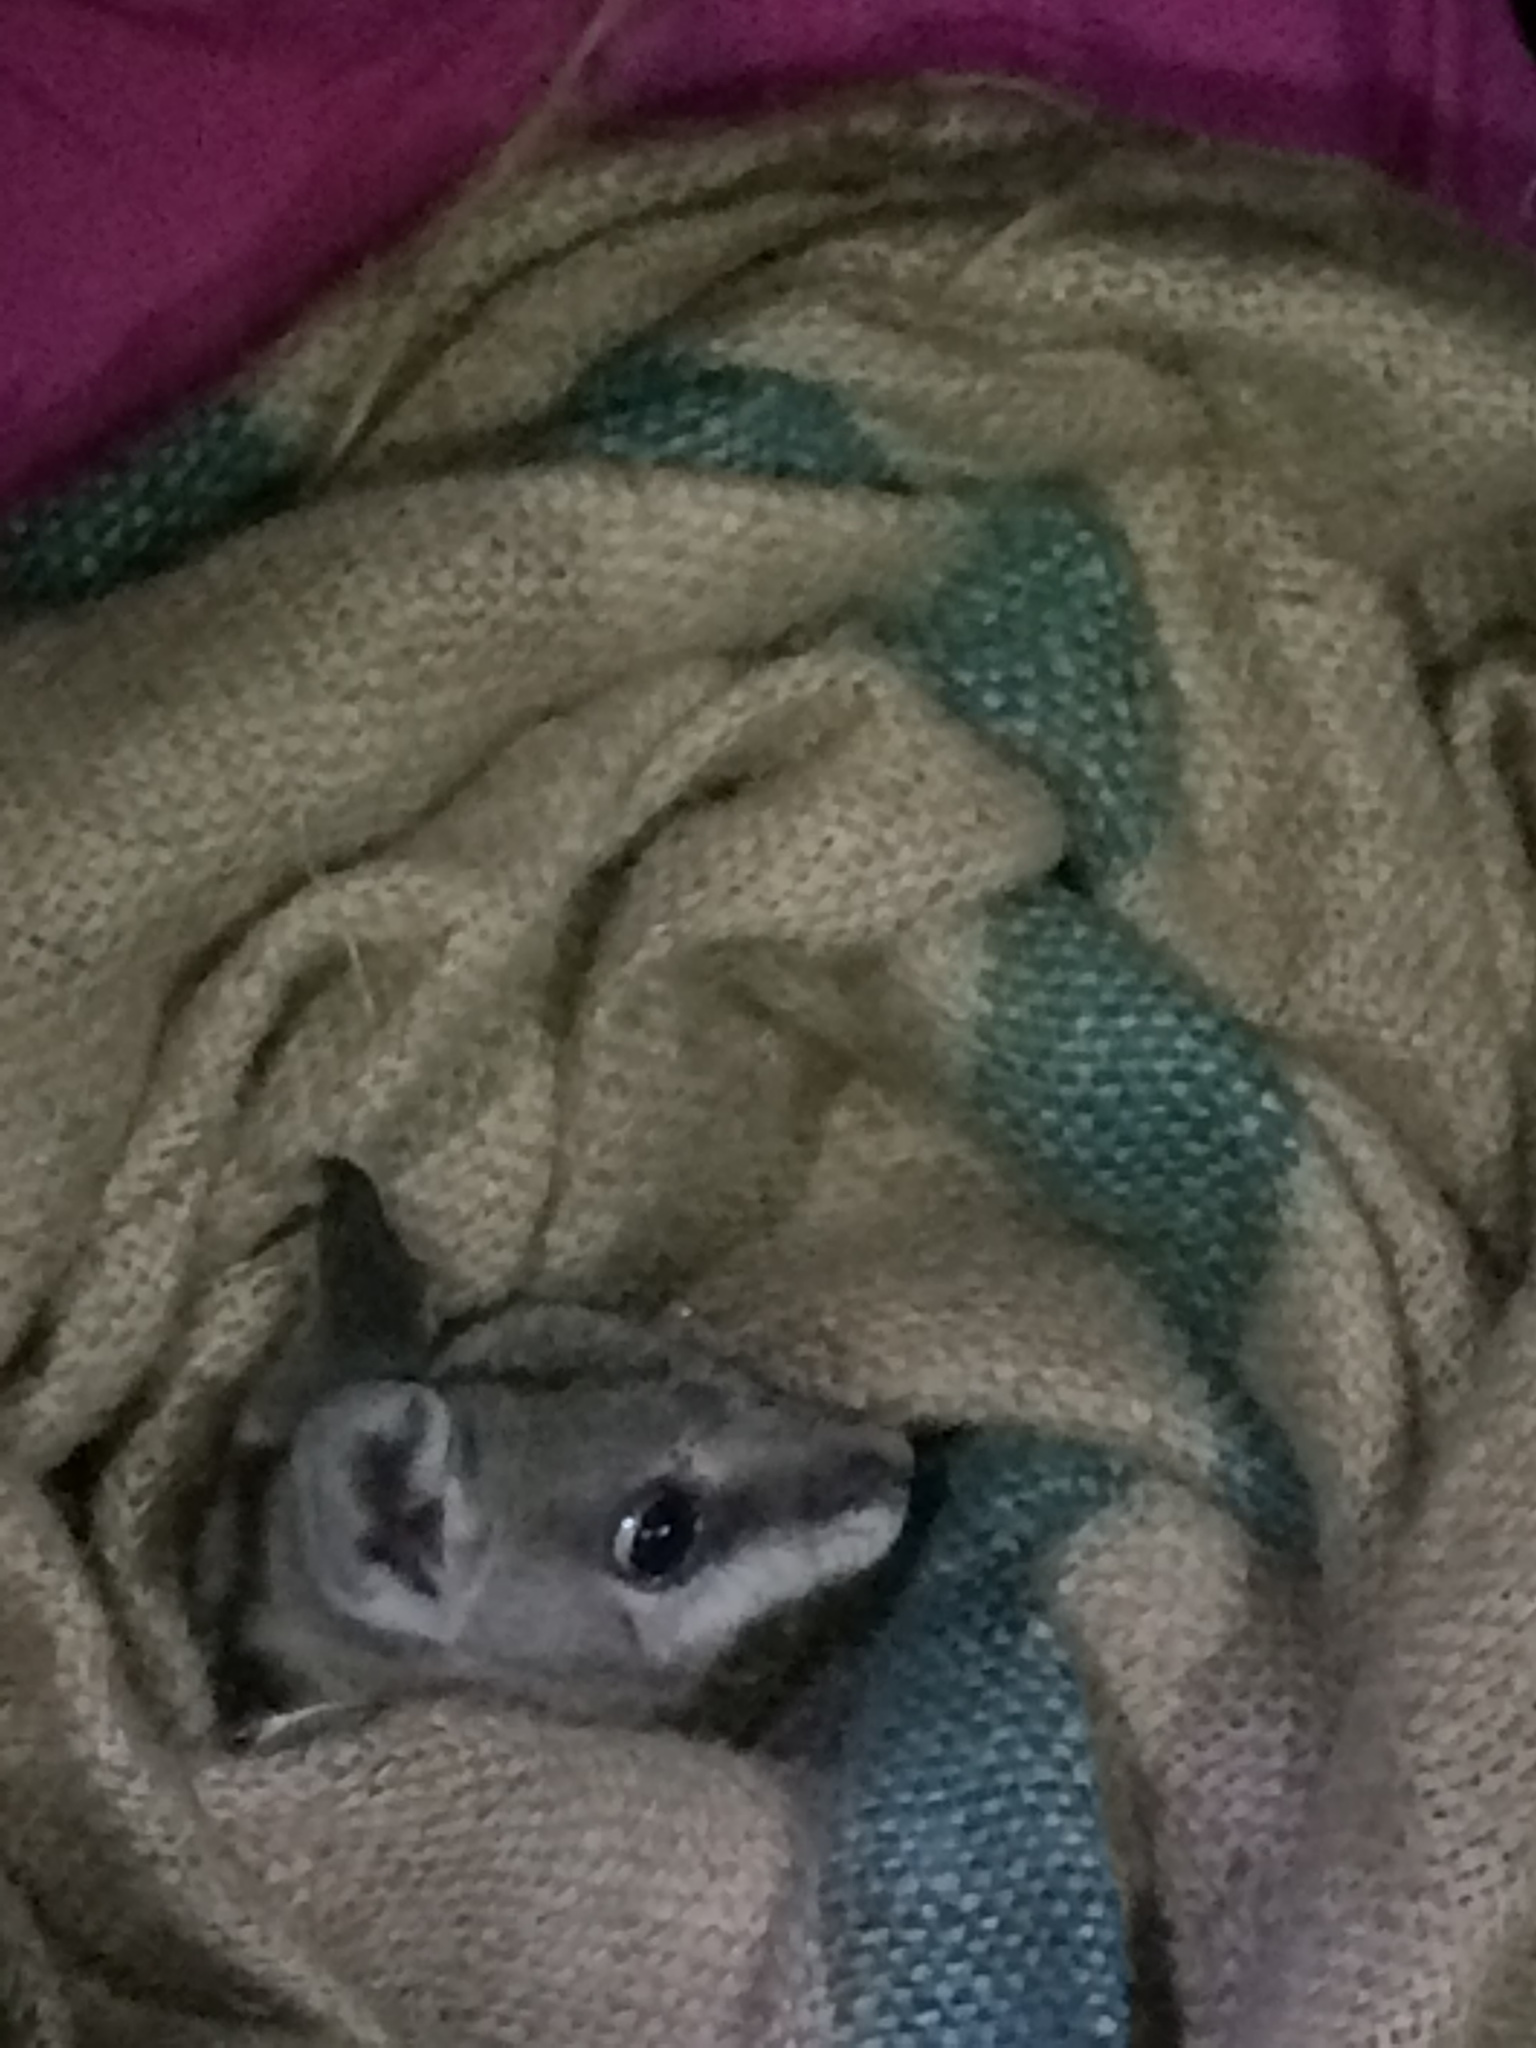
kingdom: Animalia
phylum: Chordata
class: Mammalia
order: Diprotodontia
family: Macropodidae
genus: Onychogalea
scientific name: Onychogalea fraenata
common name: Bridled nail-tail wallaby
